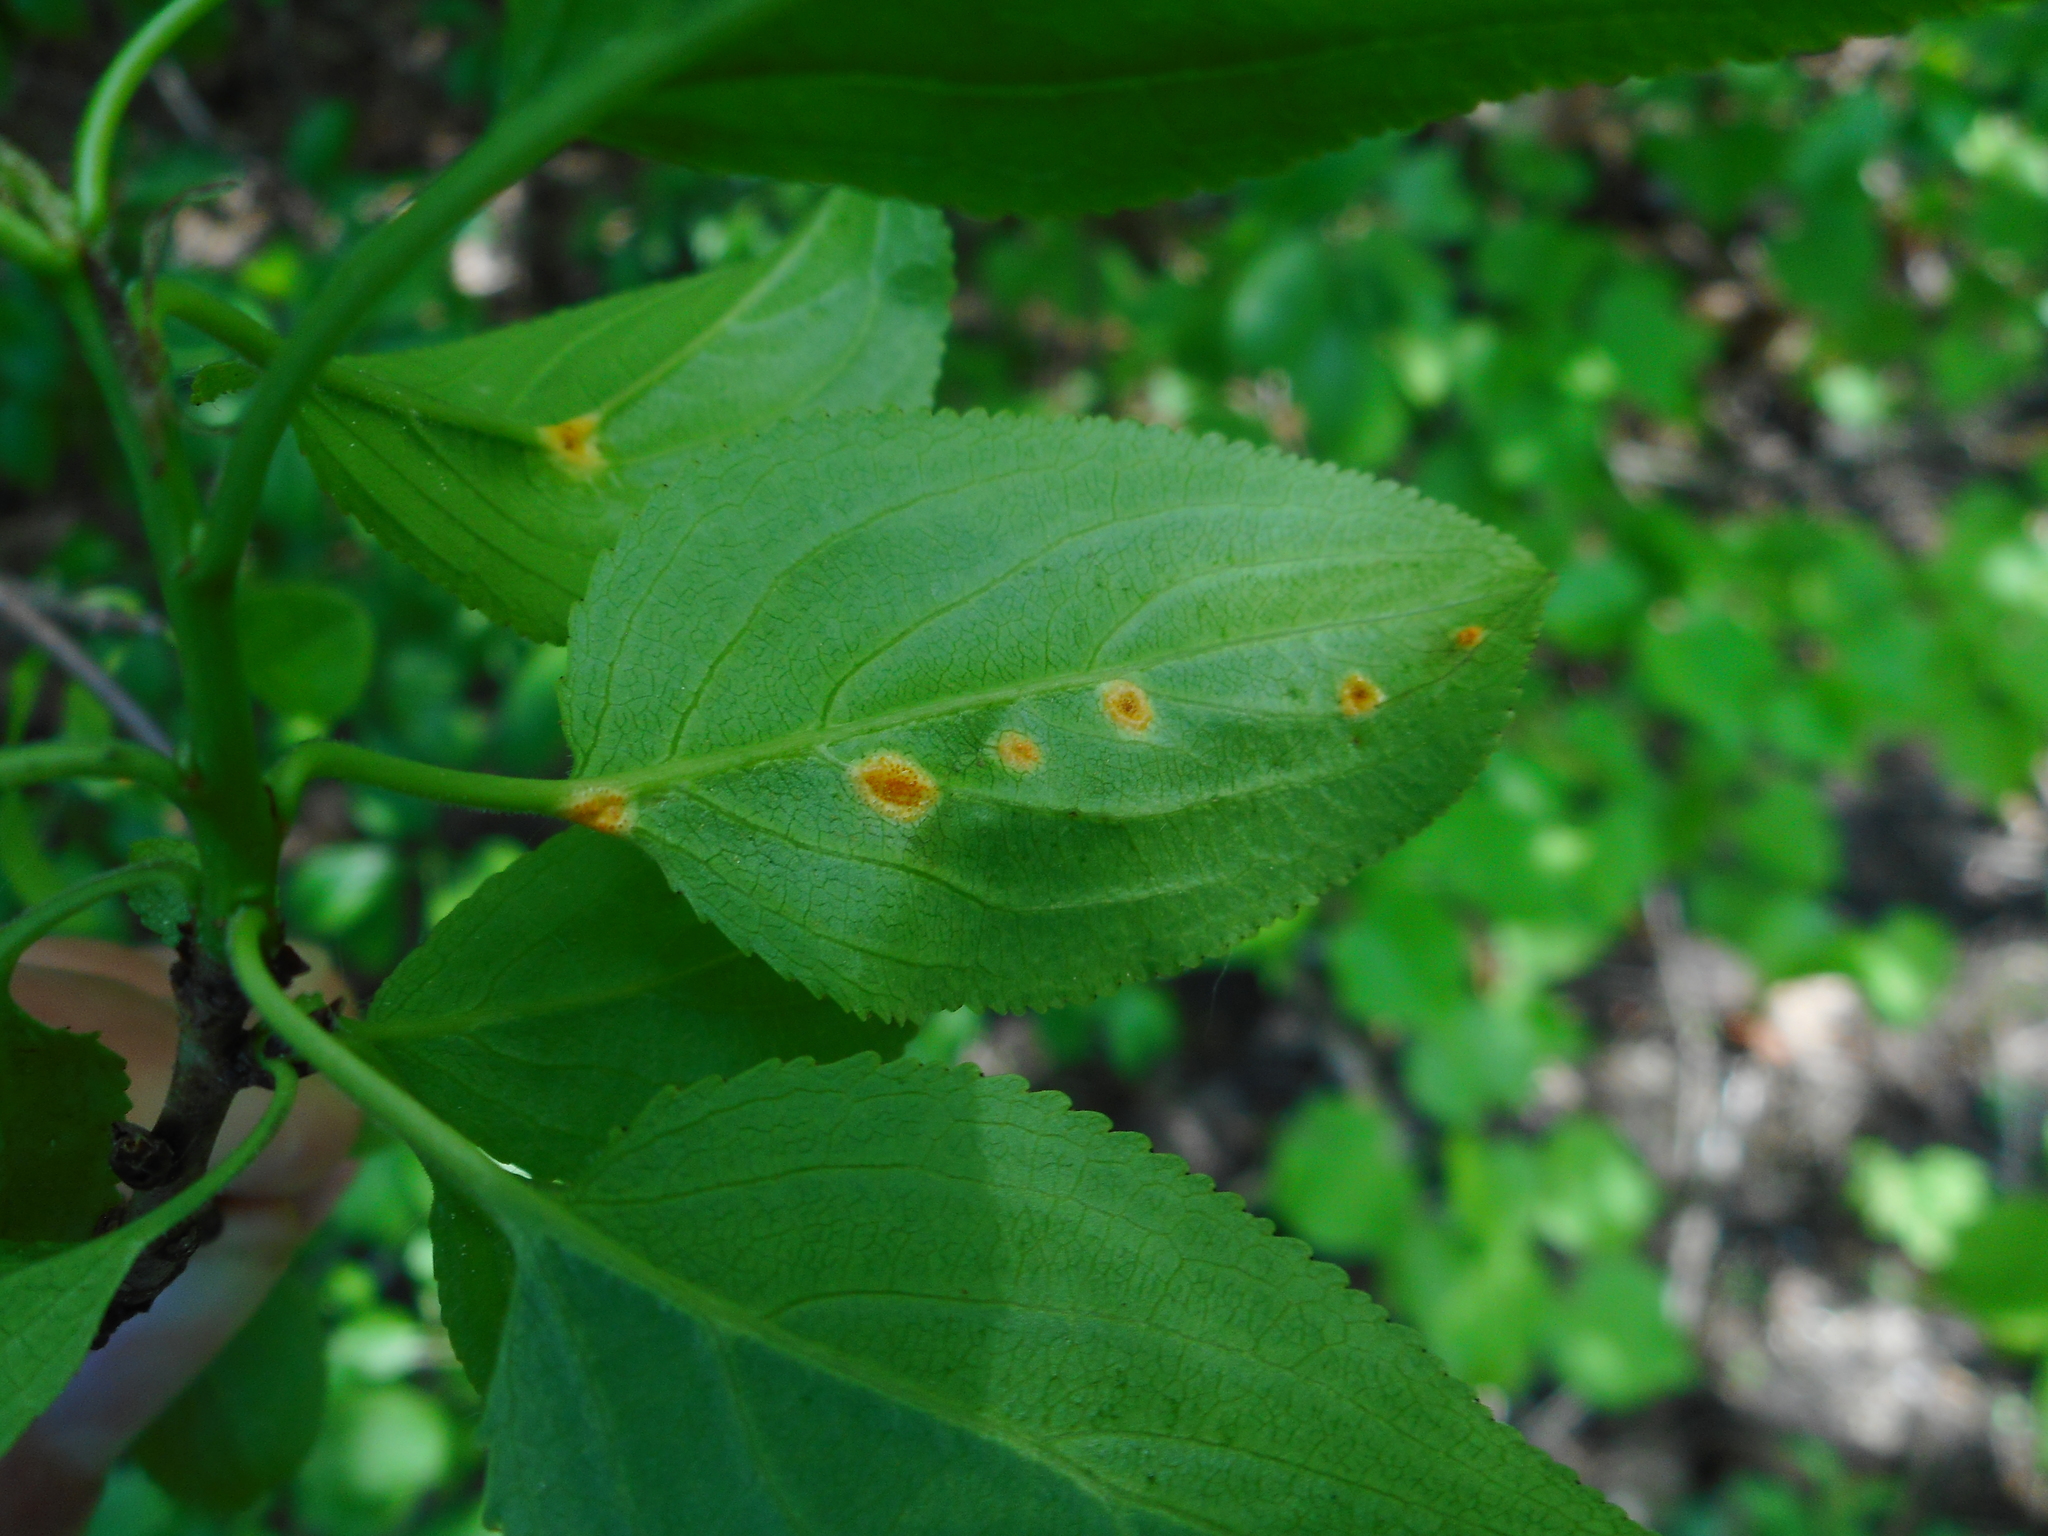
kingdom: Fungi
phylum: Basidiomycota
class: Pucciniomycetes
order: Pucciniales
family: Pucciniaceae
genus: Puccinia
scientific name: Puccinia coronata
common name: Crown rust
